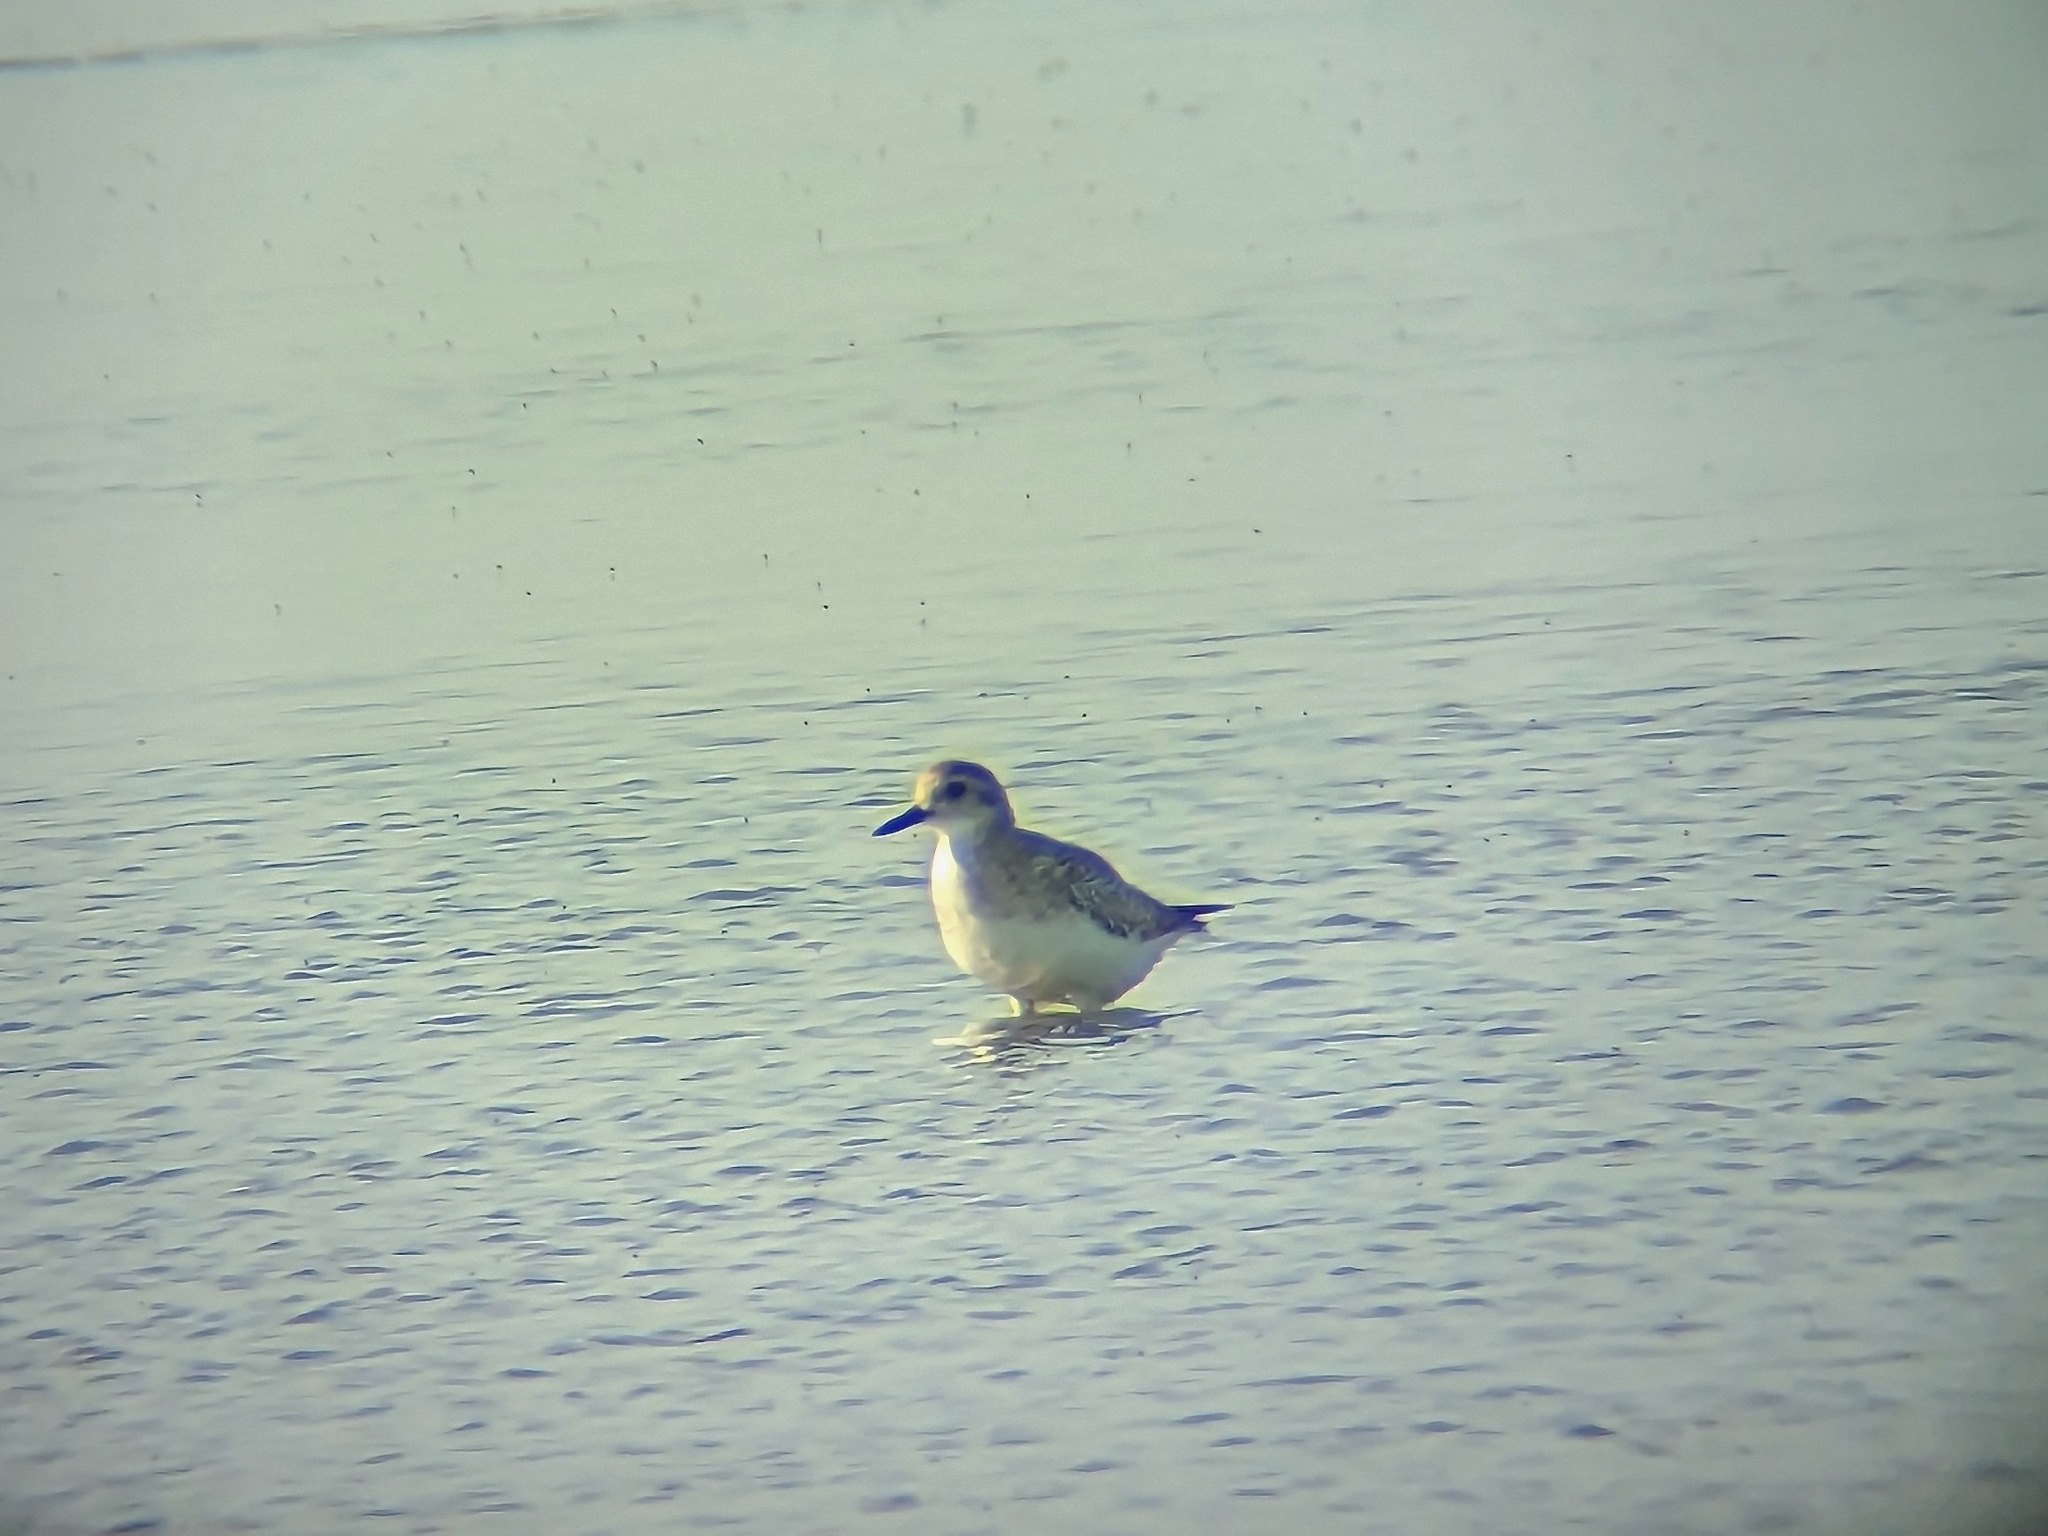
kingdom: Animalia
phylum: Chordata
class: Aves
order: Charadriiformes
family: Charadriidae
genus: Pluvialis
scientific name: Pluvialis squatarola
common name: Grey plover
